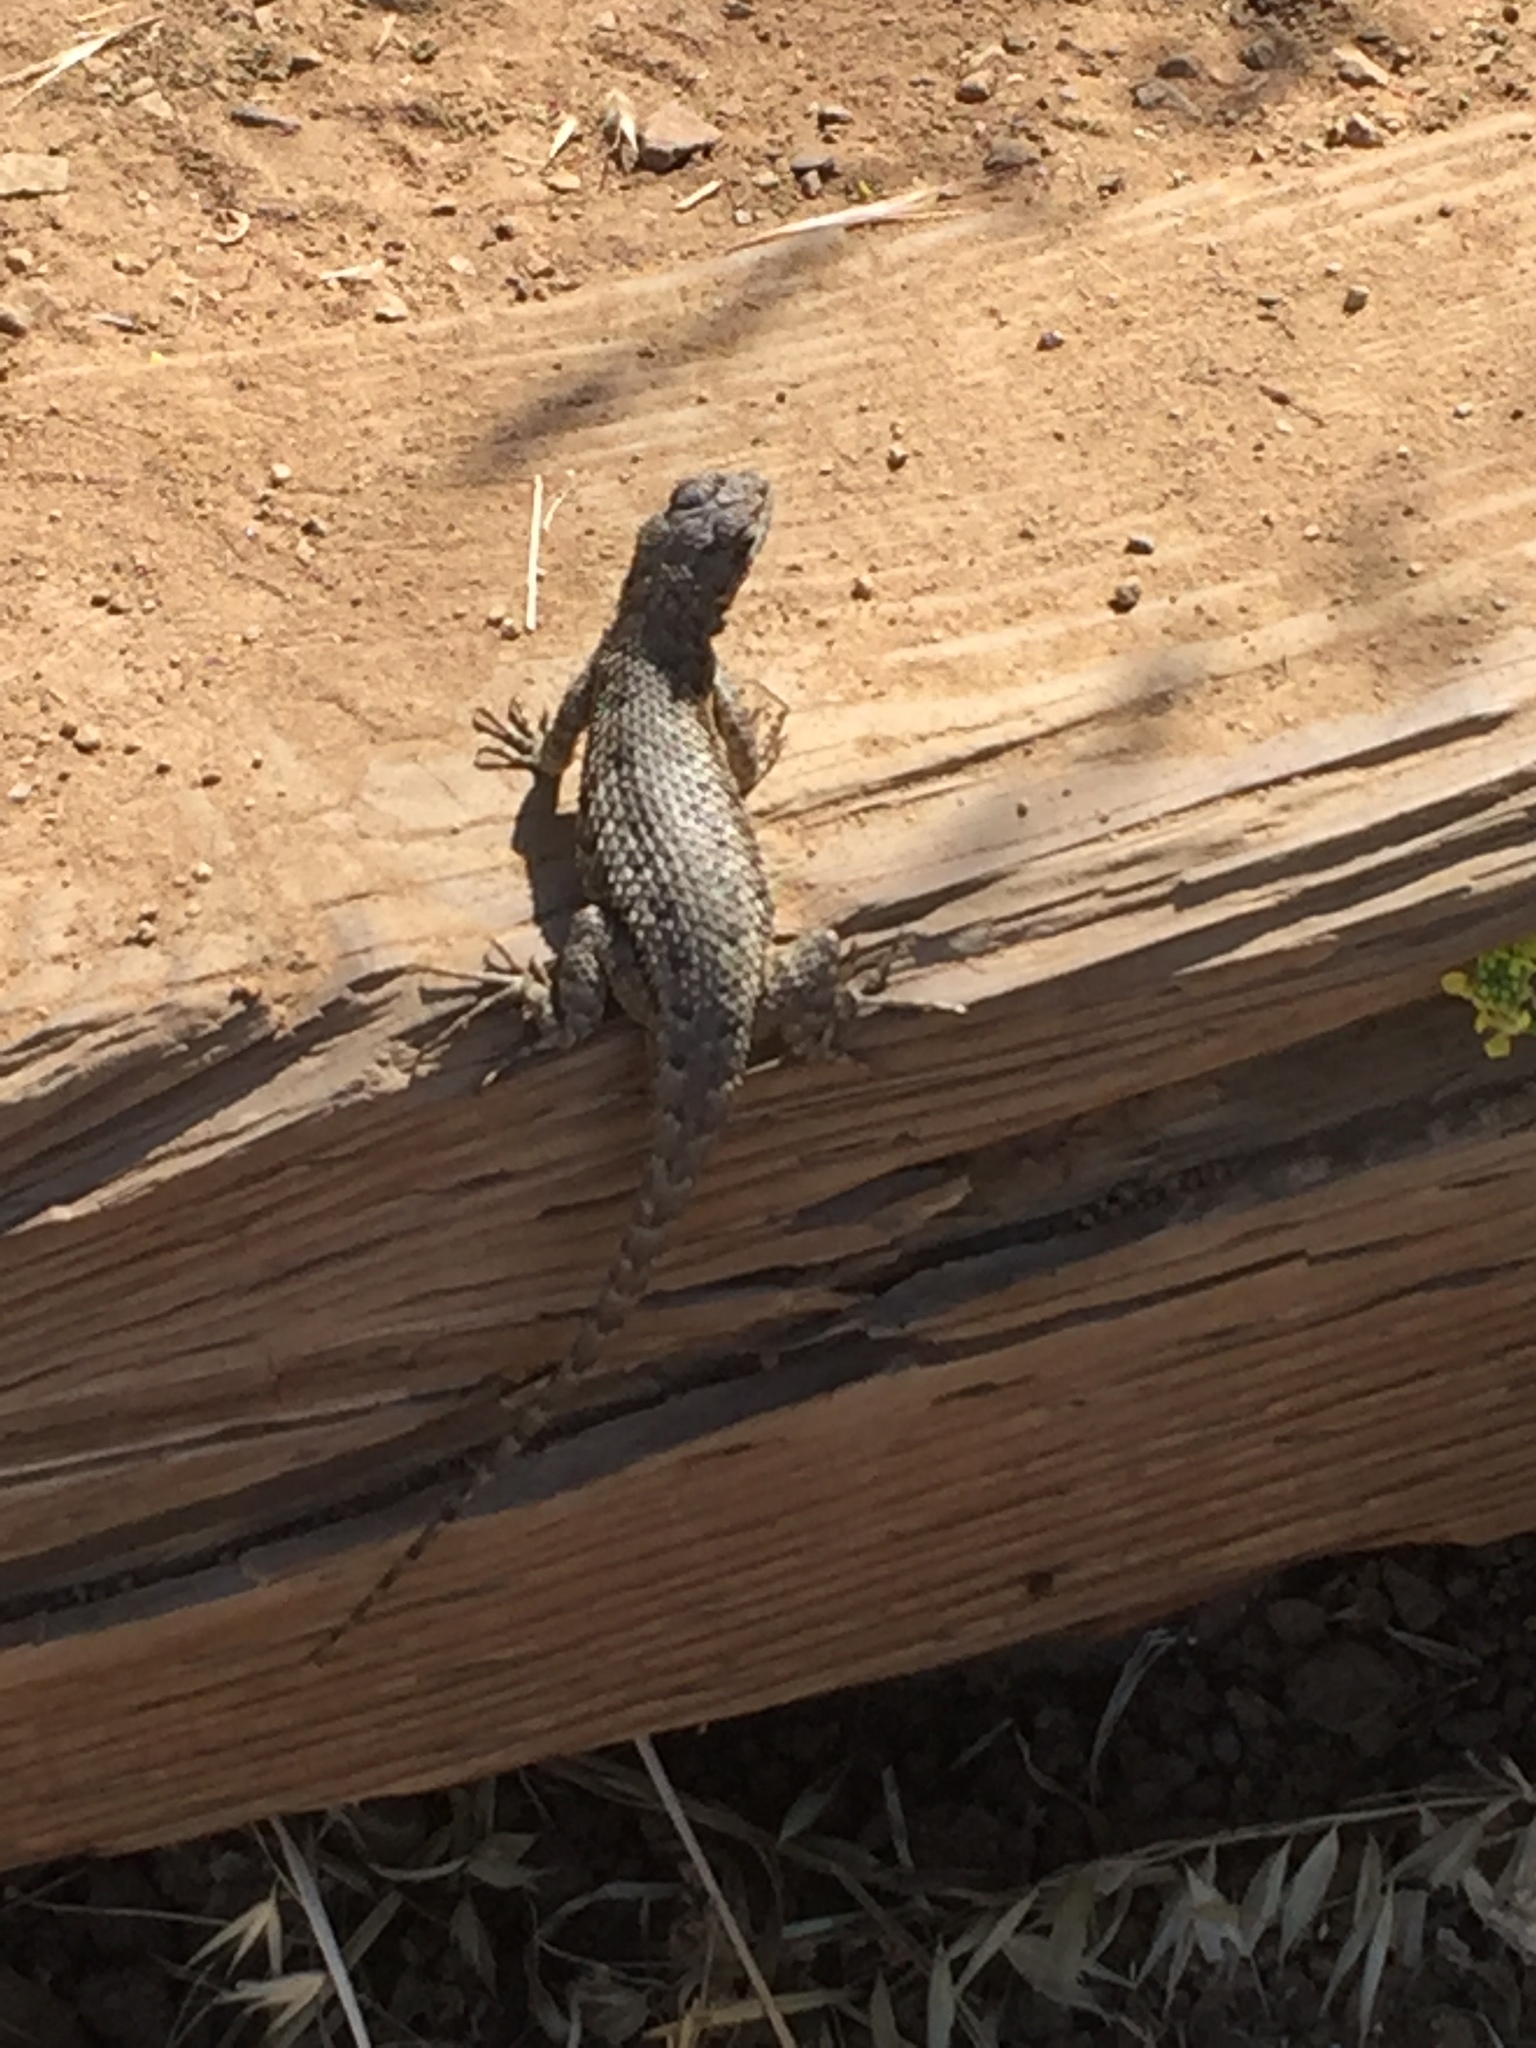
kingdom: Animalia
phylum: Chordata
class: Squamata
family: Phrynosomatidae
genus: Sceloporus
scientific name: Sceloporus occidentalis
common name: Western fence lizard
